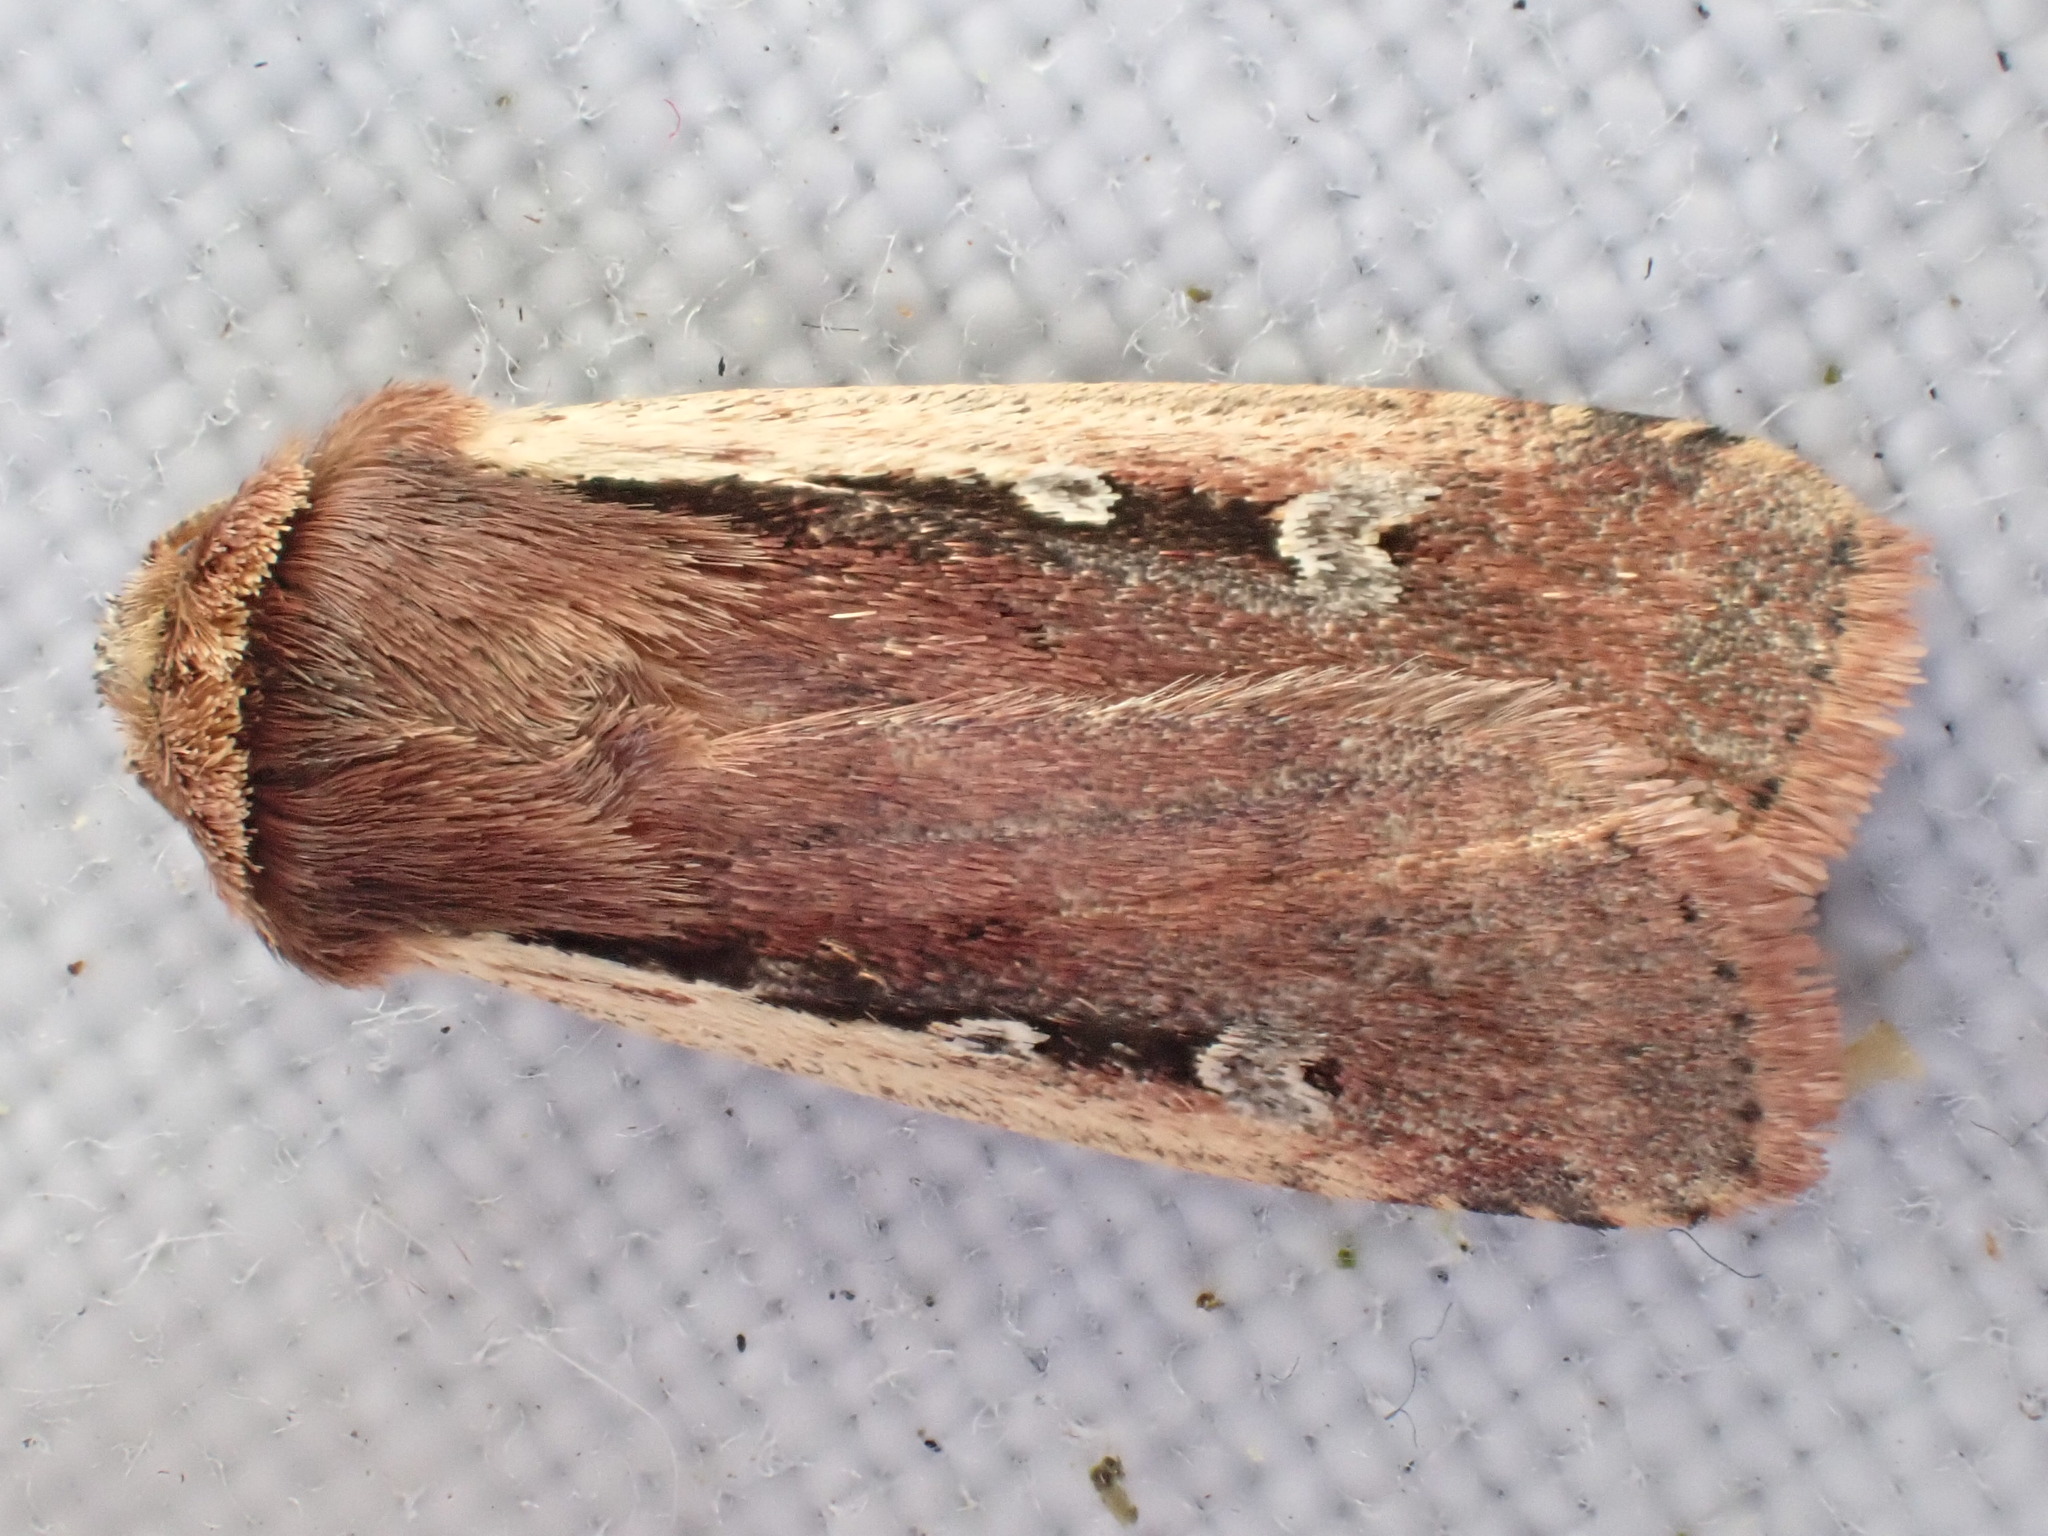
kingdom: Animalia
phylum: Arthropoda
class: Insecta
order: Lepidoptera
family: Noctuidae
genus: Ochropleura
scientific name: Ochropleura plecta
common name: Flame shoulder
